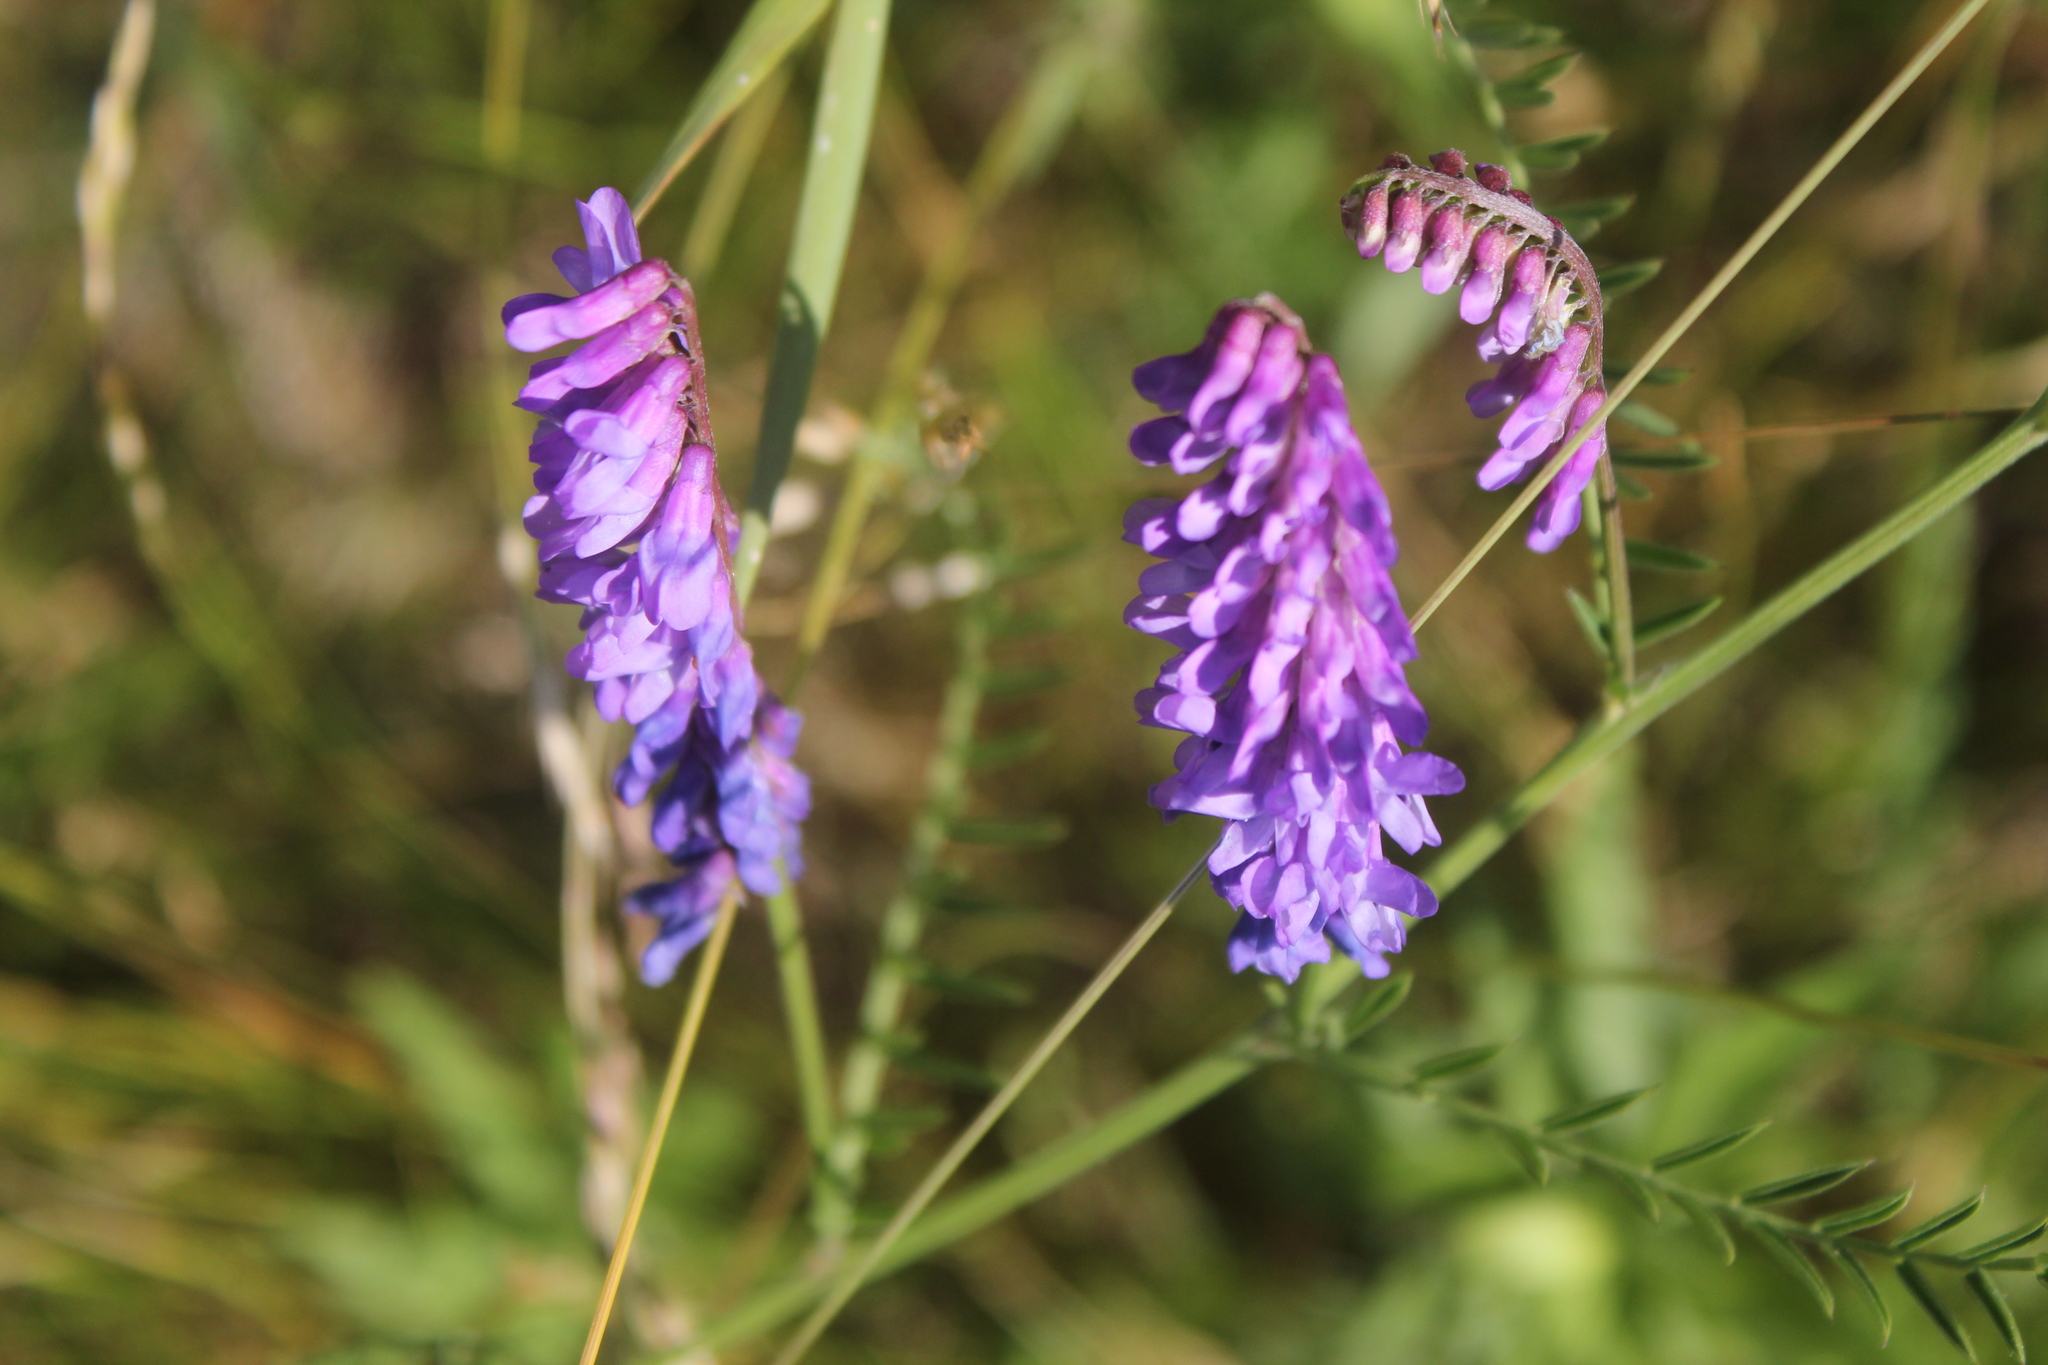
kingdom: Plantae
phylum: Tracheophyta
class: Magnoliopsida
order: Fabales
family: Fabaceae
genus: Vicia
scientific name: Vicia cracca
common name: Bird vetch
